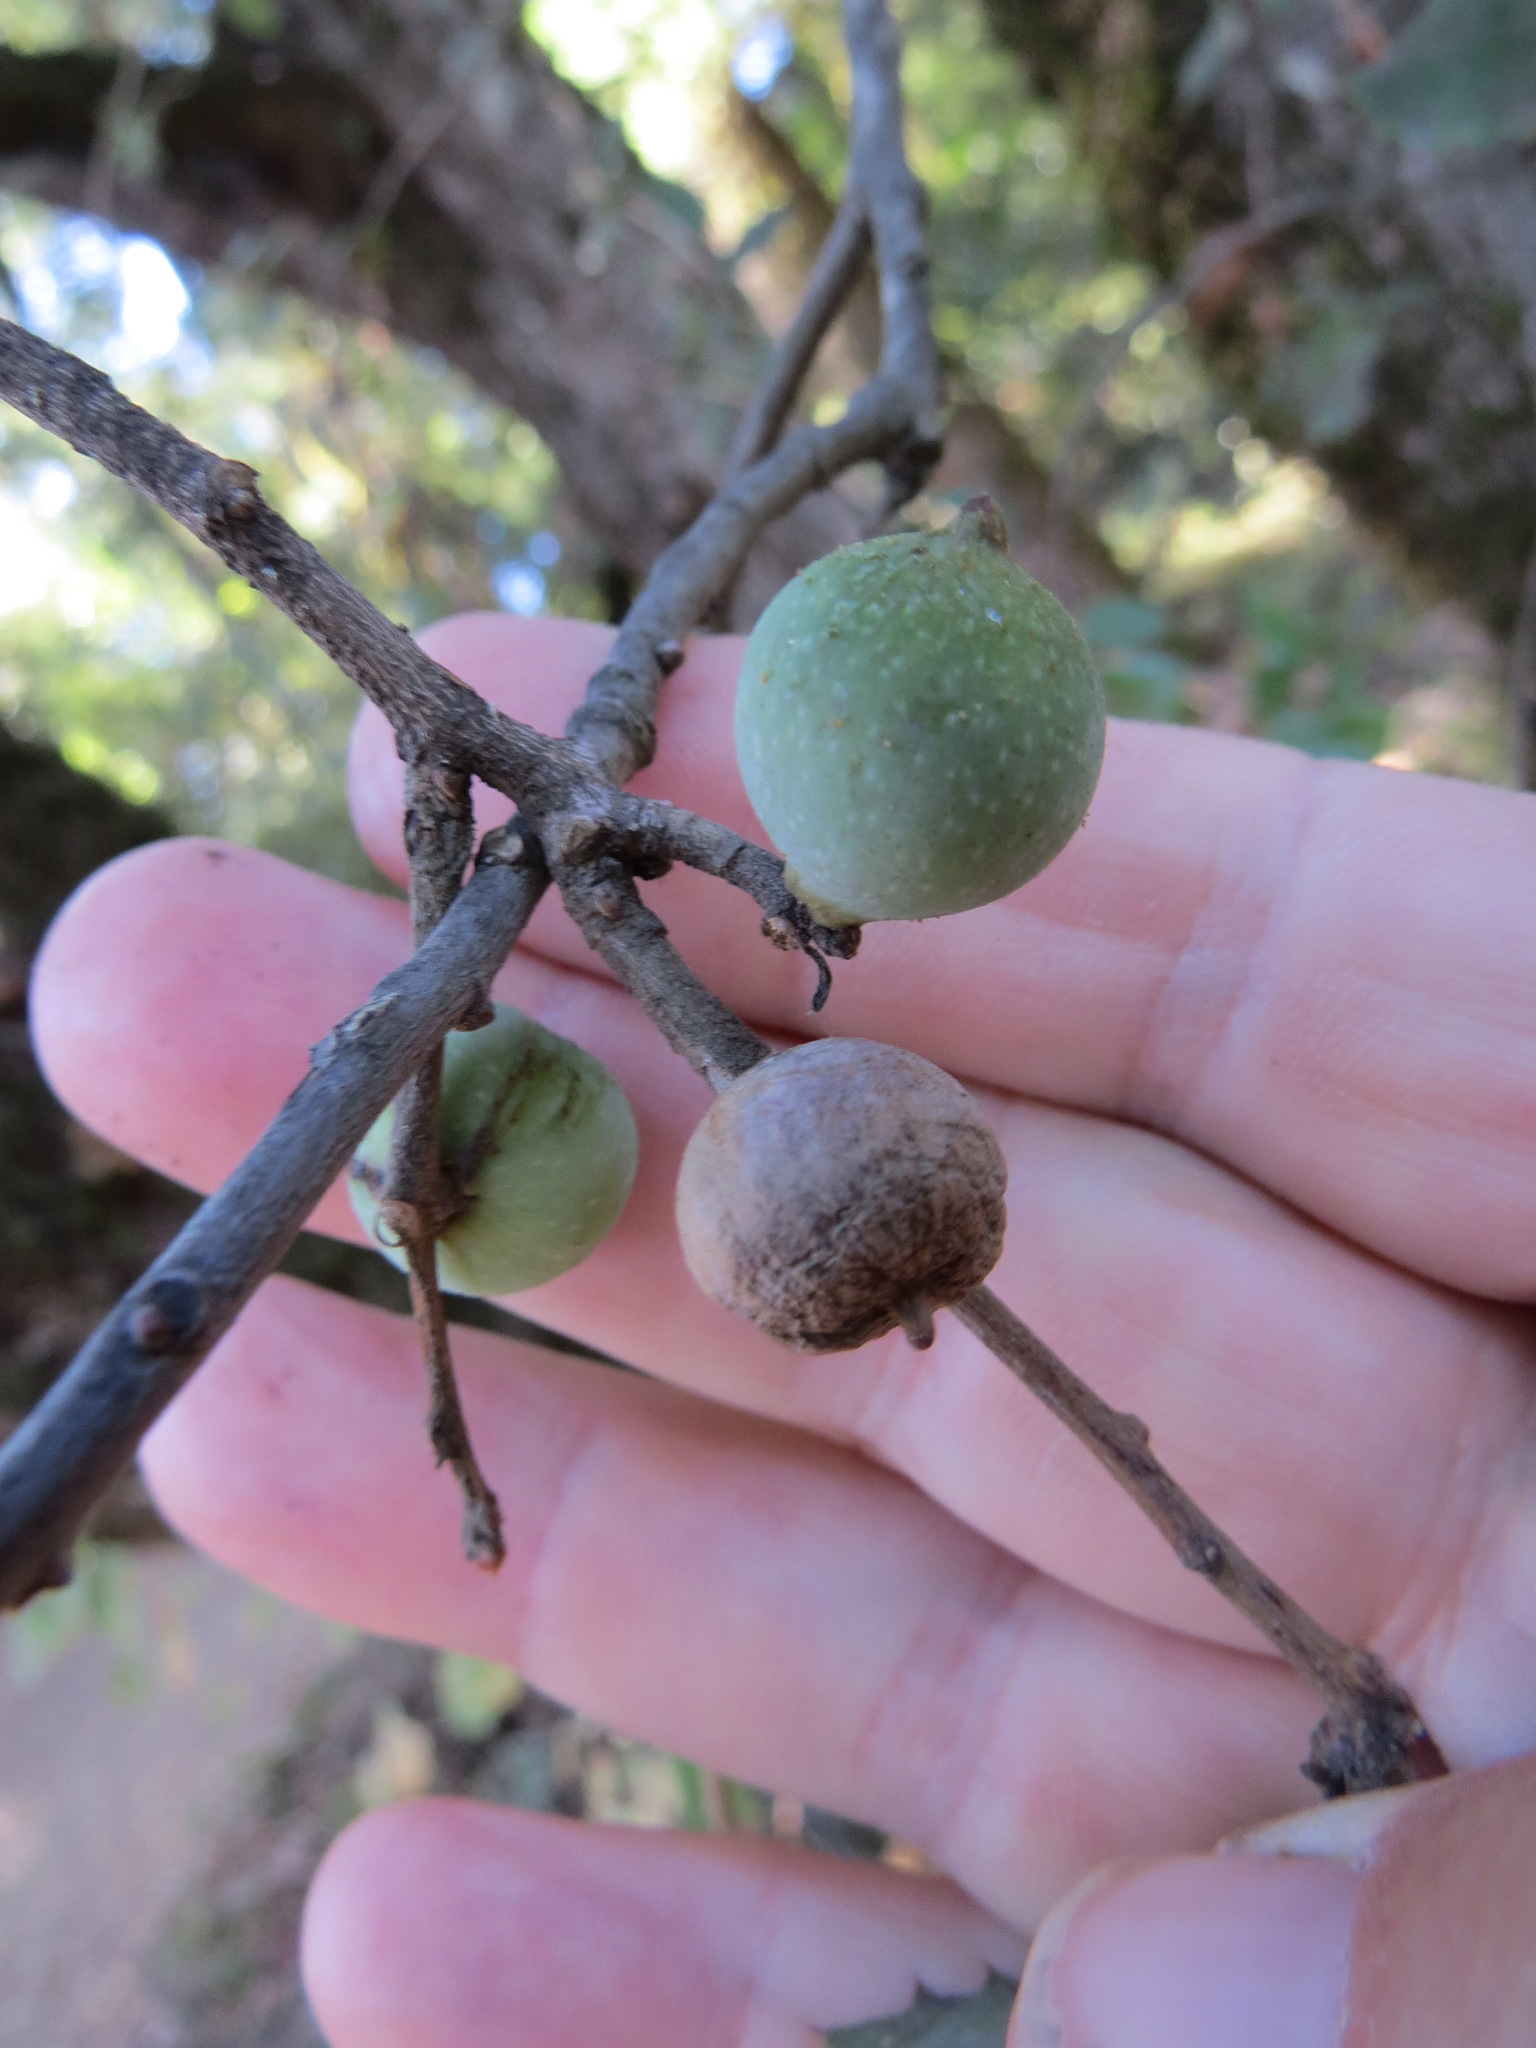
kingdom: Animalia
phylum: Arthropoda
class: Insecta
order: Hymenoptera
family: Cynipidae
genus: Heteroecus
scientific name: Heteroecus
